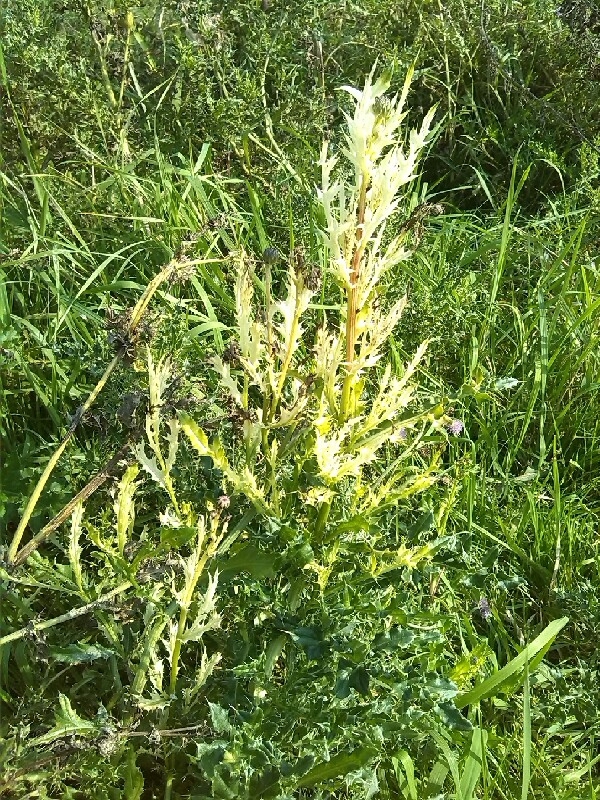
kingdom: Plantae
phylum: Tracheophyta
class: Magnoliopsida
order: Asterales
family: Asteraceae
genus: Cirsium
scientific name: Cirsium arvense
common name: Creeping thistle
